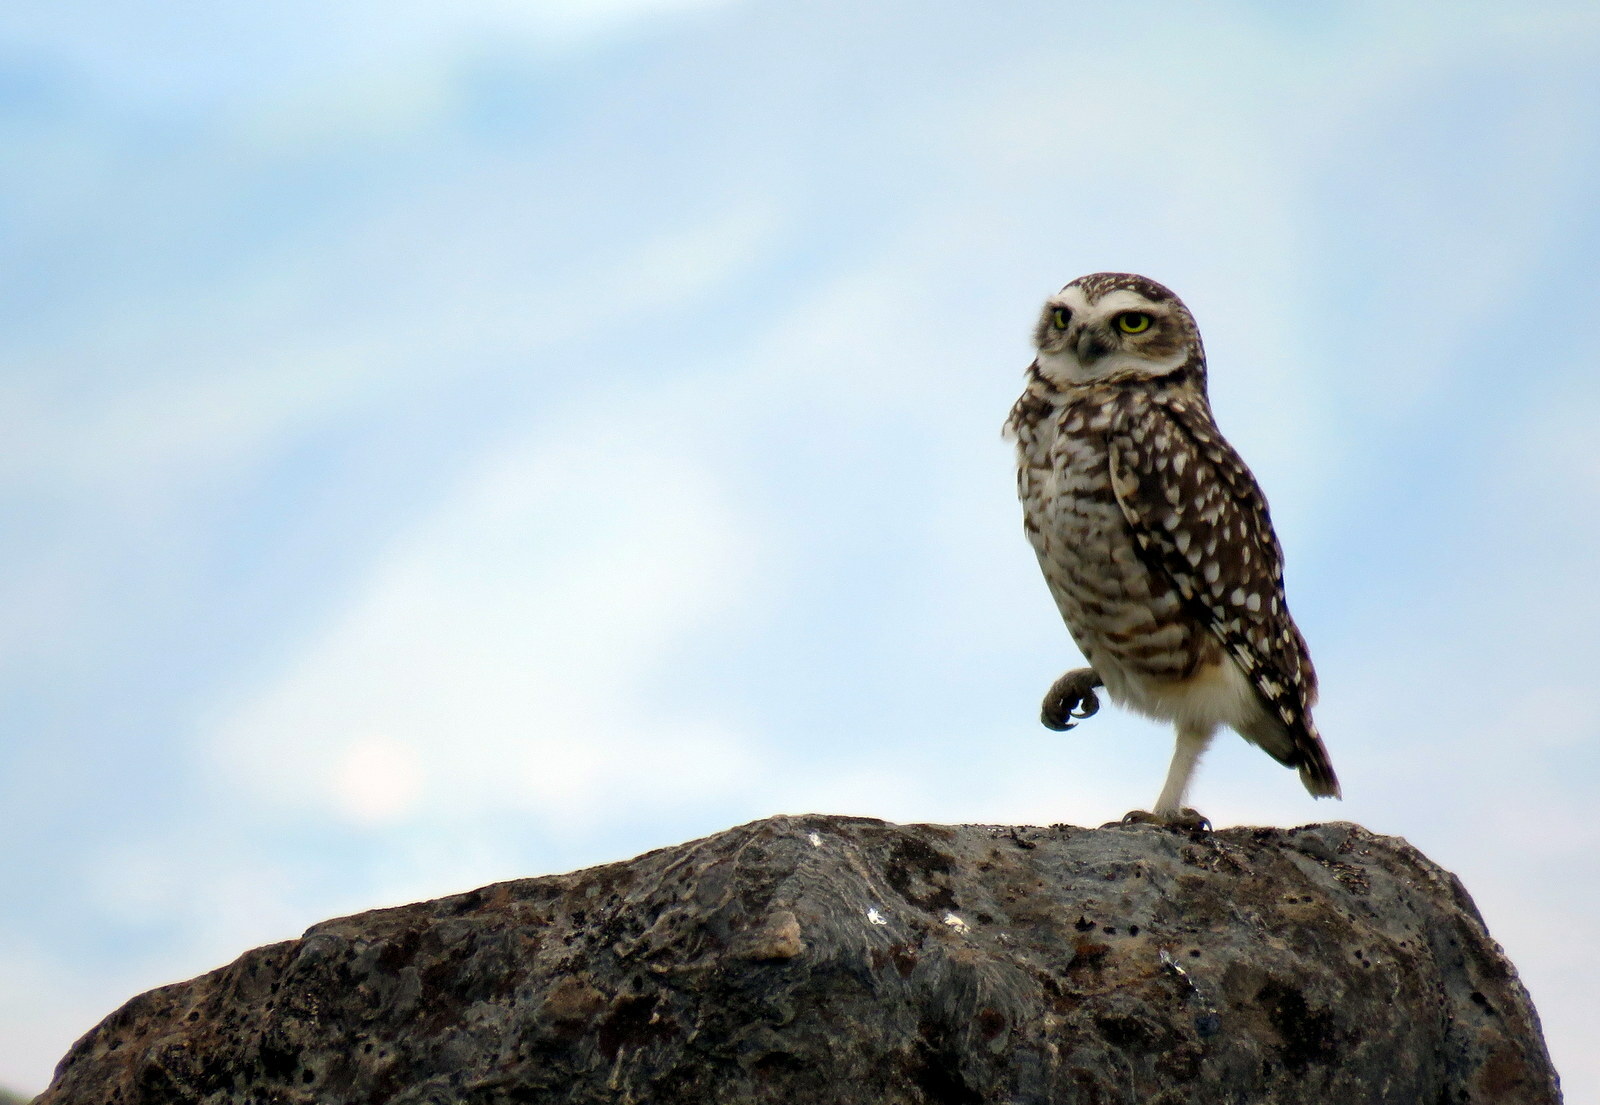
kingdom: Animalia
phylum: Chordata
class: Aves
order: Strigiformes
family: Strigidae
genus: Athene
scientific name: Athene cunicularia
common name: Burrowing owl
